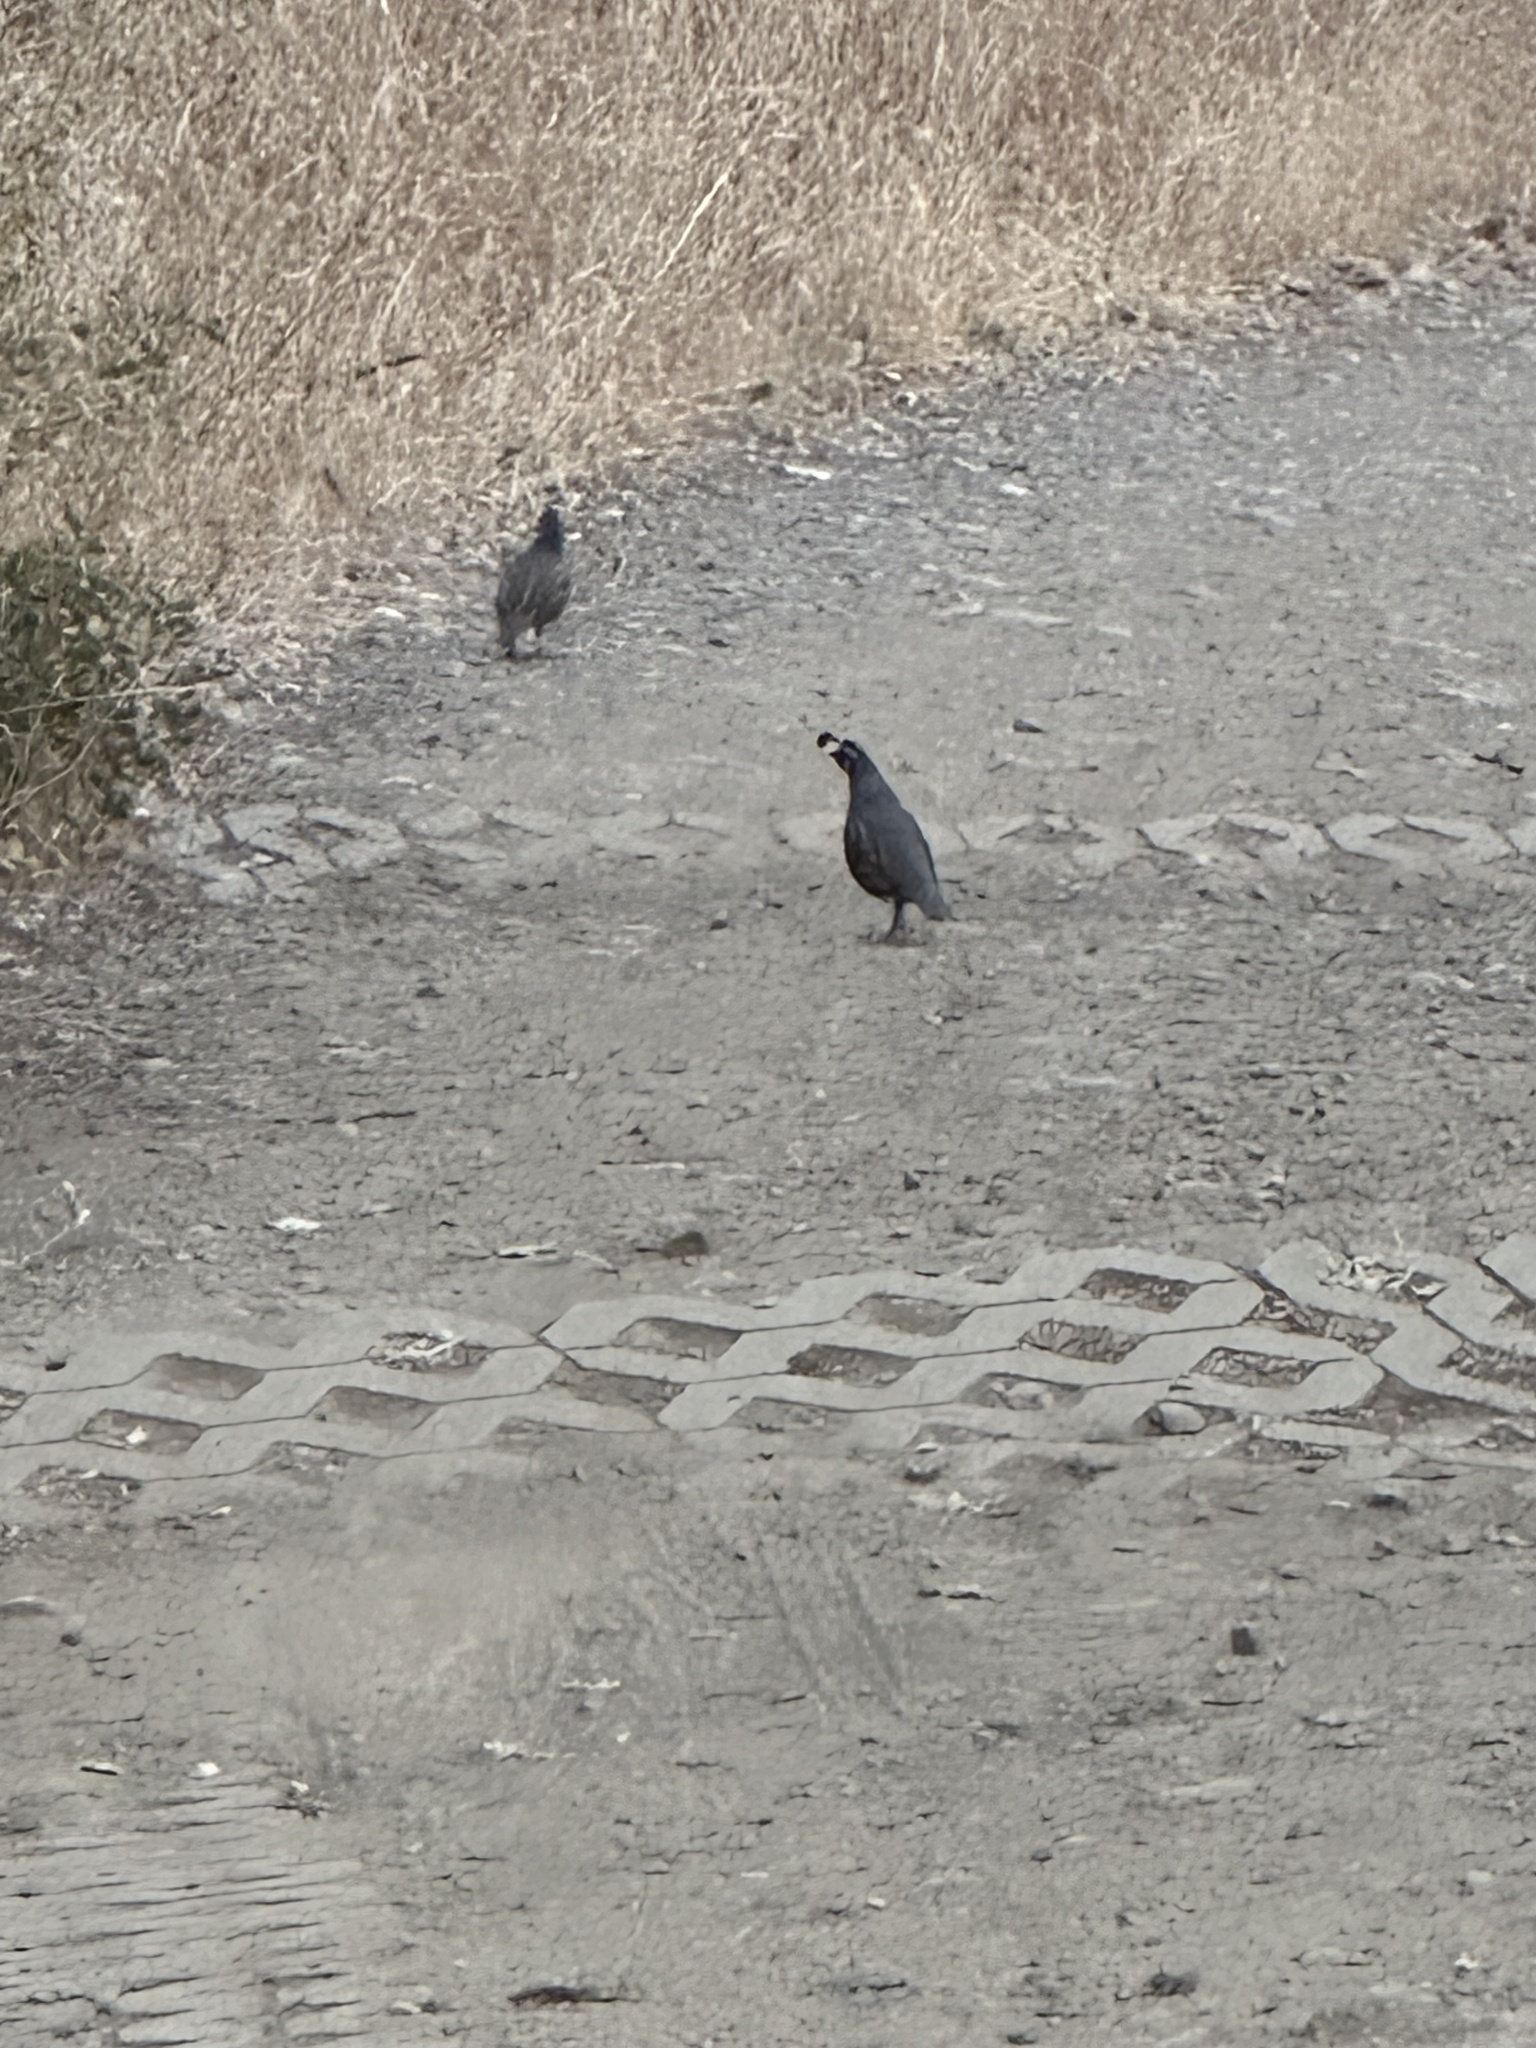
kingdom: Animalia
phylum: Chordata
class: Aves
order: Galliformes
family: Odontophoridae
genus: Callipepla
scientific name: Callipepla californica
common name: California quail
